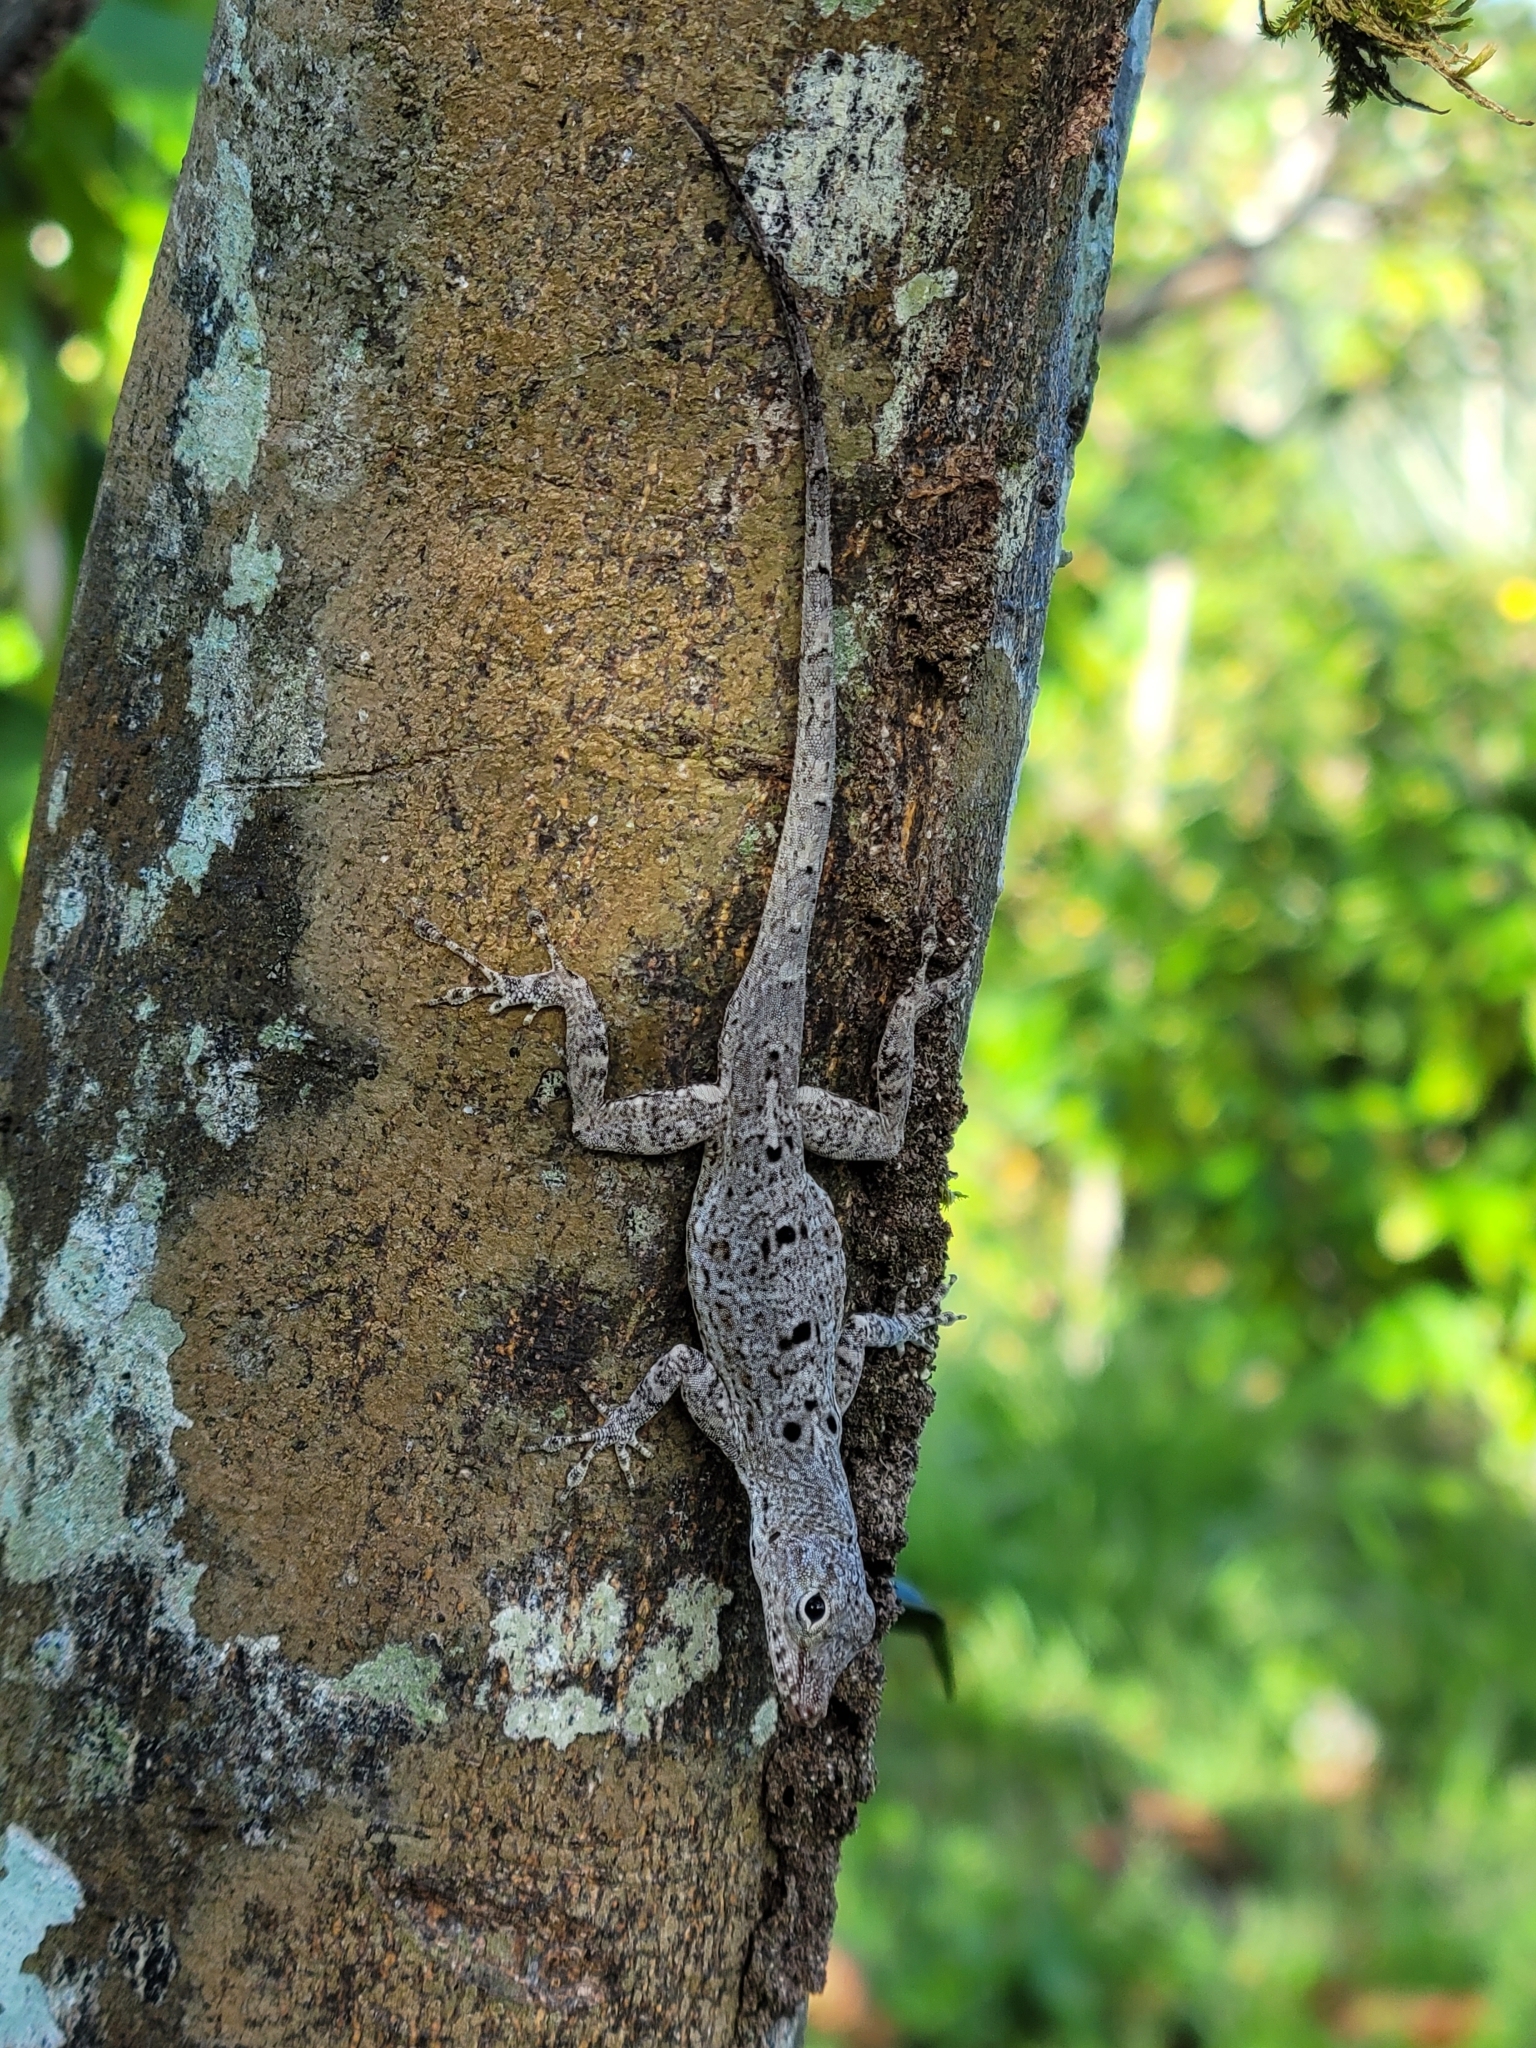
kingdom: Animalia
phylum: Chordata
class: Squamata
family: Dactyloidae
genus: Anolis
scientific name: Anolis stratulus
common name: Banded anole
